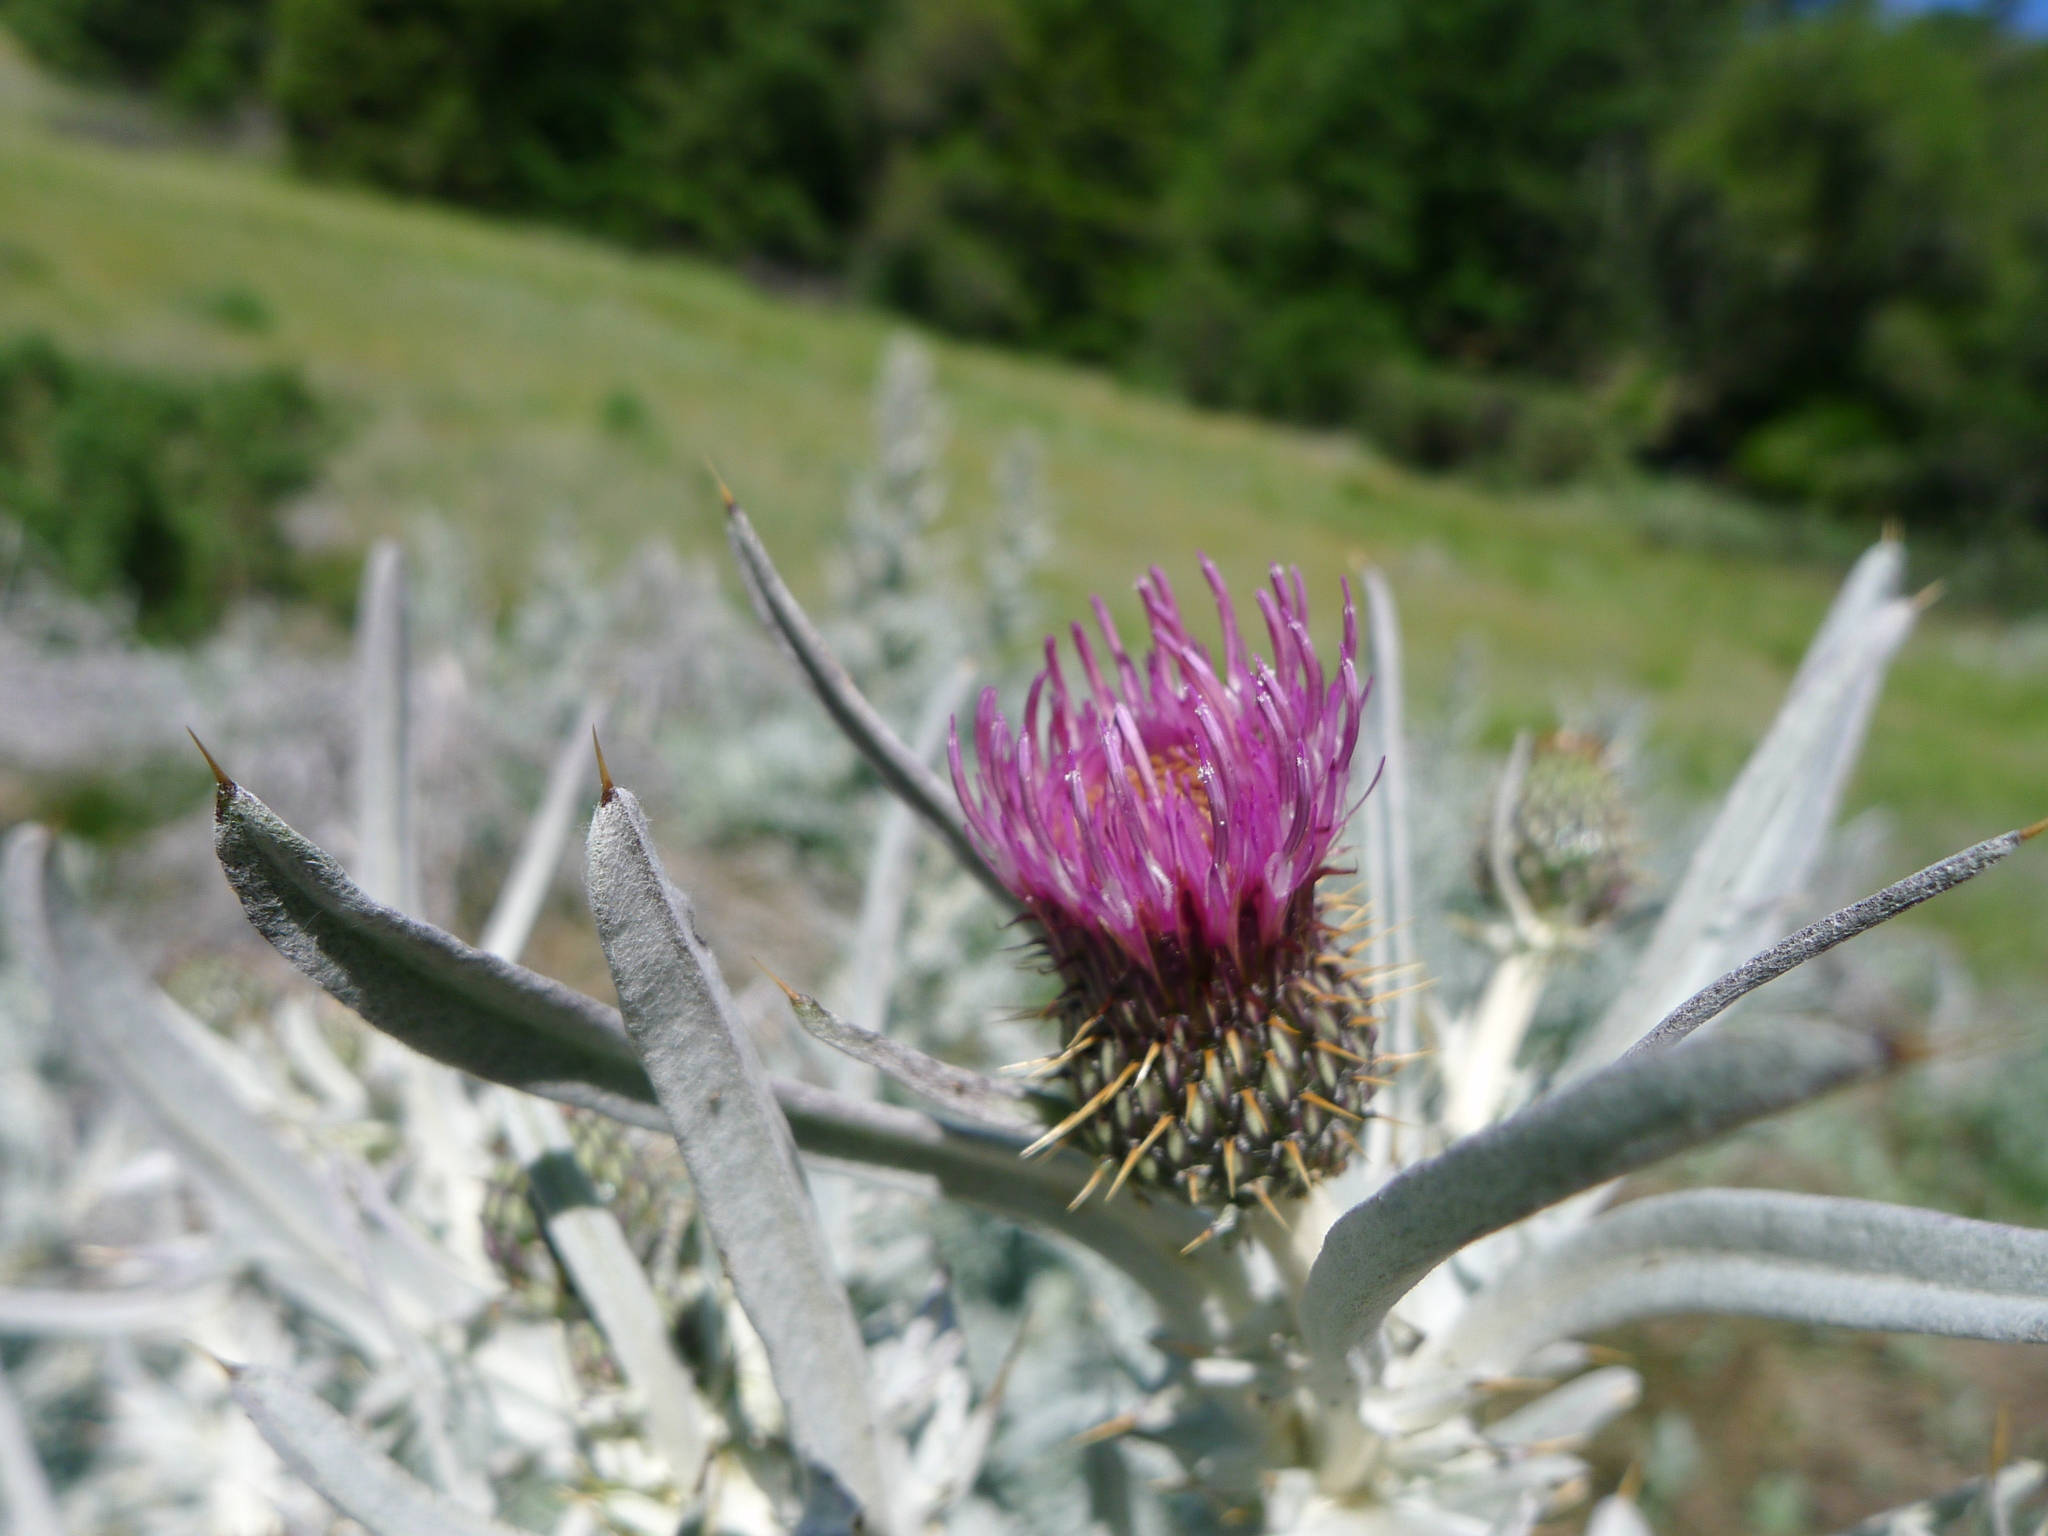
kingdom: Plantae
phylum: Tracheophyta
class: Magnoliopsida
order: Asterales
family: Asteraceae
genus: Cirsium
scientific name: Cirsium douglasii
